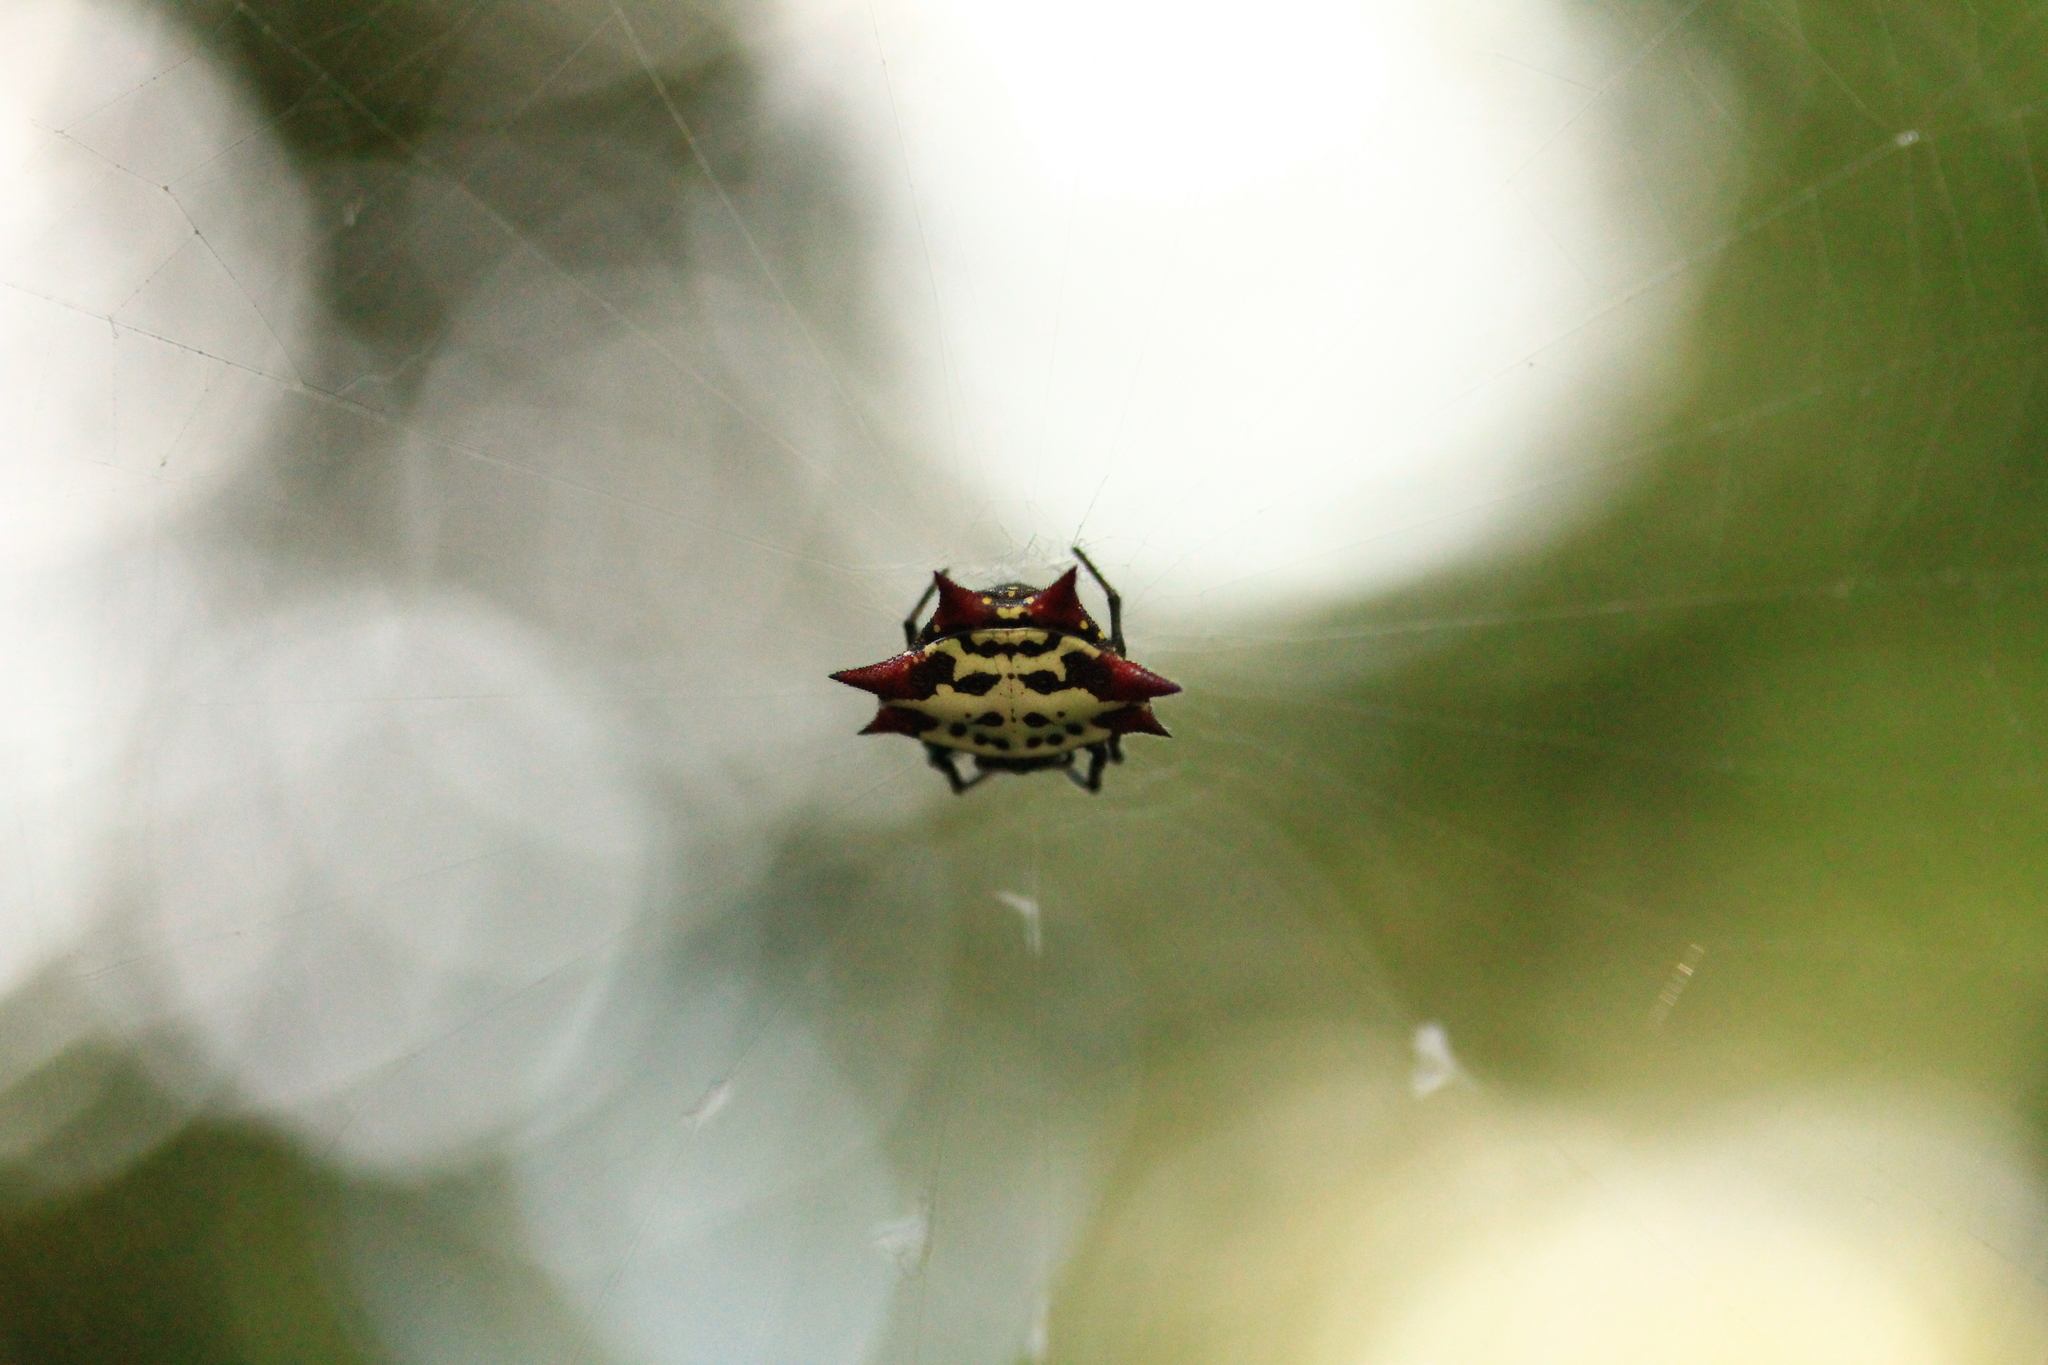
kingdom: Animalia
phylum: Arthropoda
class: Arachnida
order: Araneae
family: Araneidae
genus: Gasteracantha
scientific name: Gasteracantha cancriformis
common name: Orb weavers
